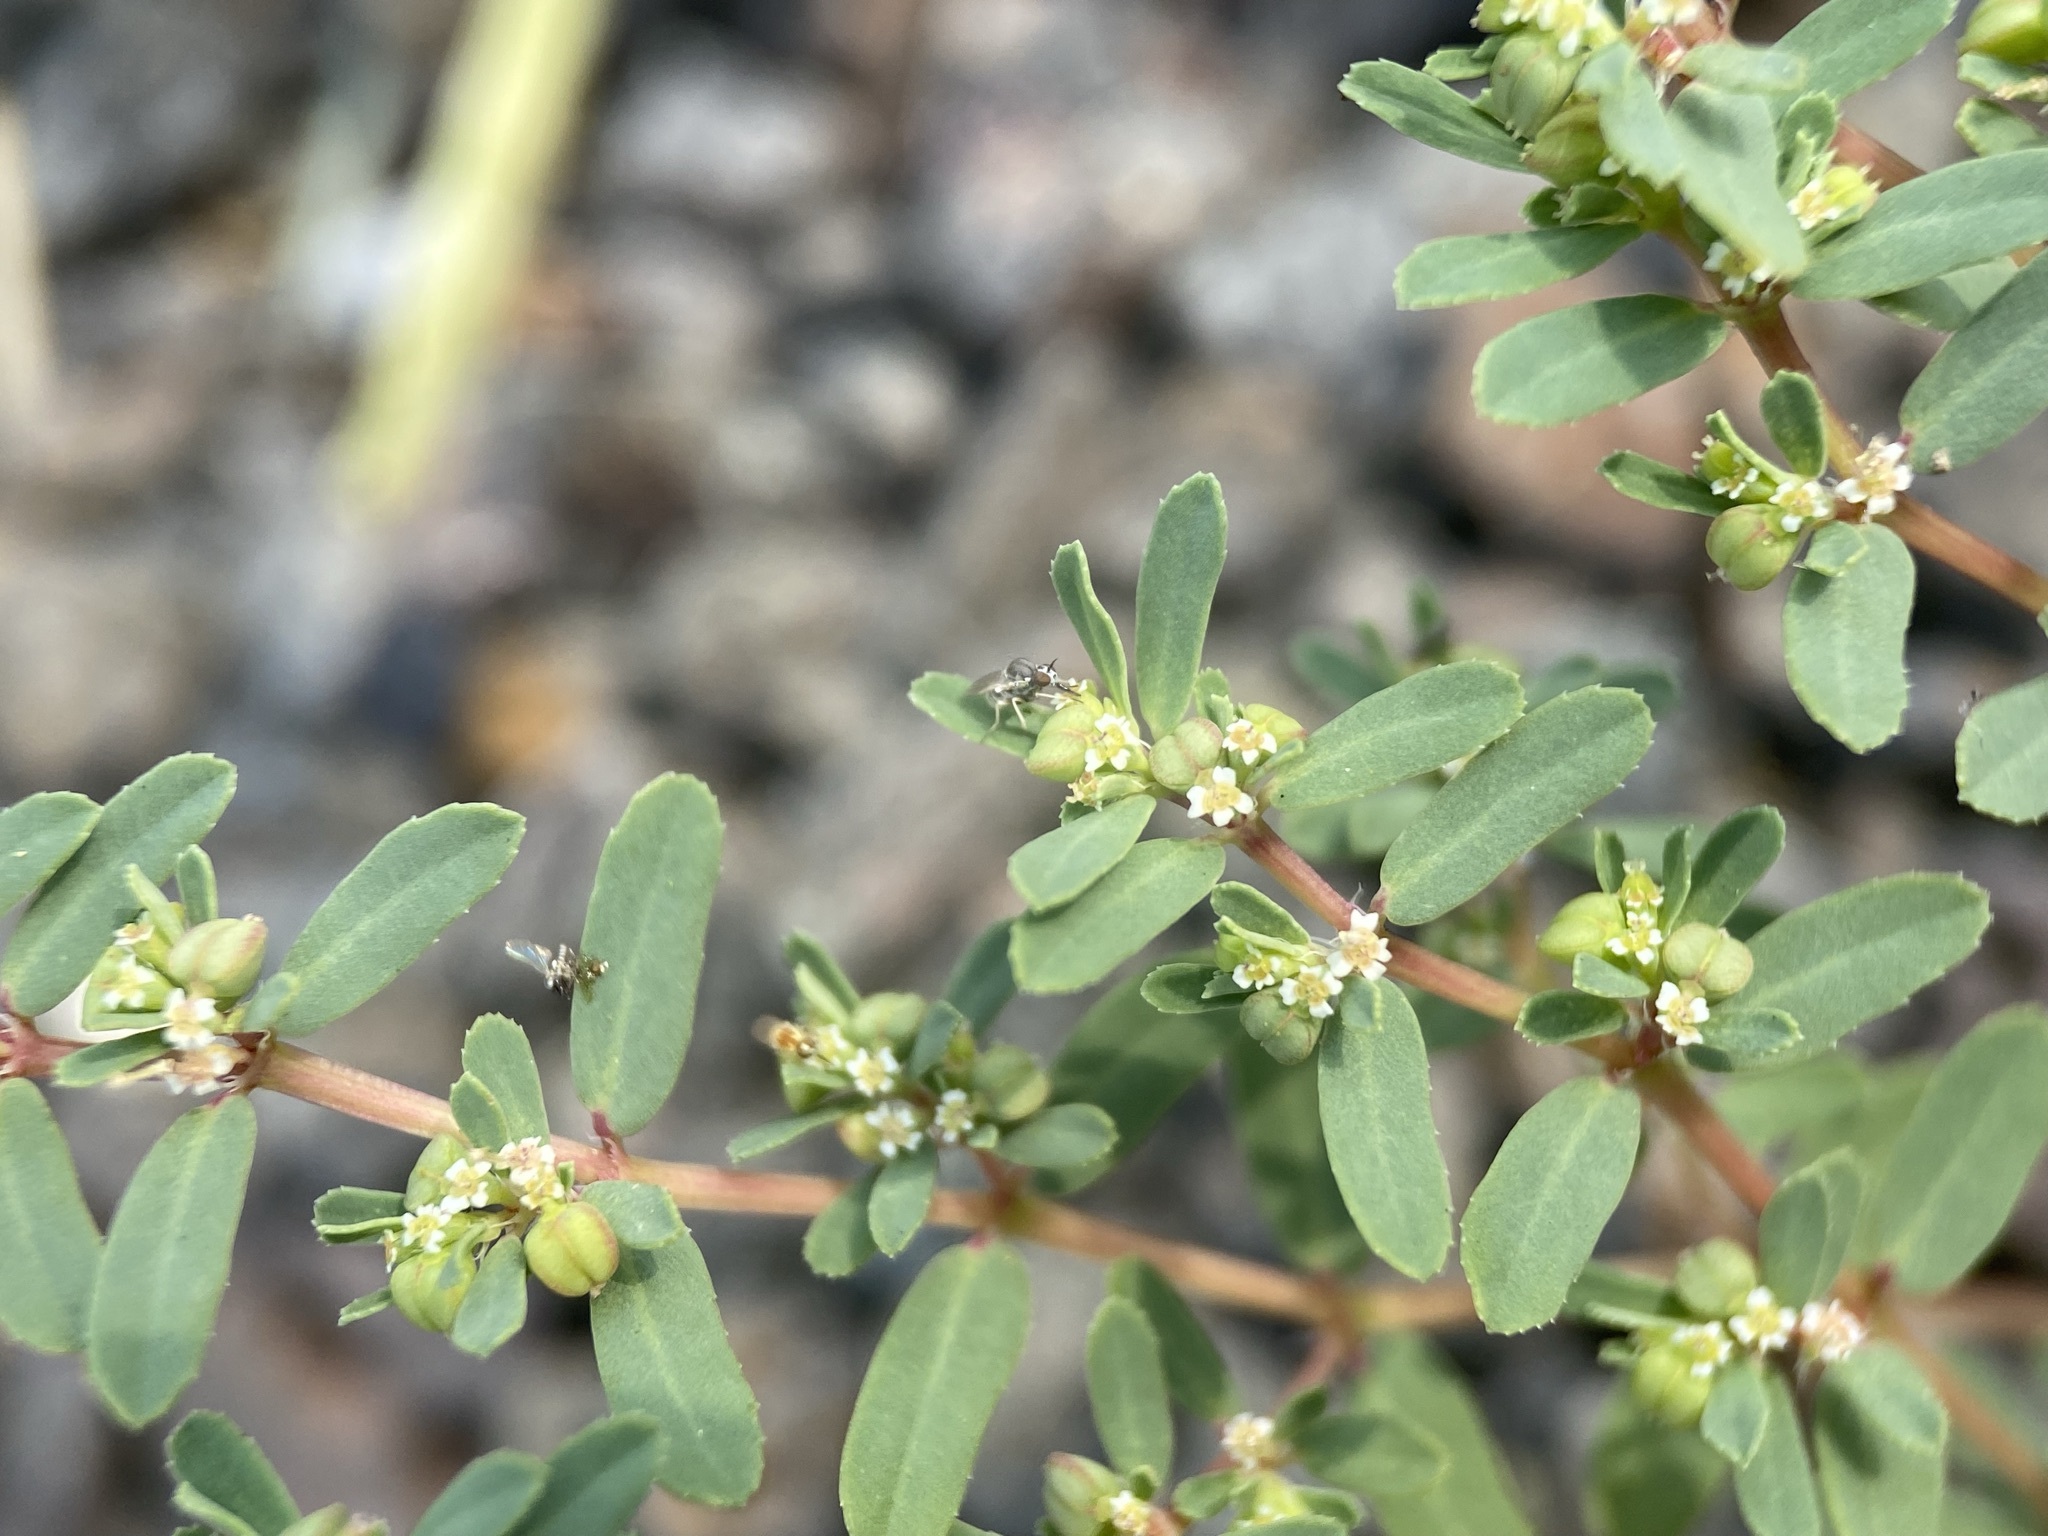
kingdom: Plantae
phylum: Tracheophyta
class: Magnoliopsida
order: Malpighiales
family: Euphorbiaceae
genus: Euphorbia
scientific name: Euphorbia serpillifolia
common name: Thyme-leaf spurge
